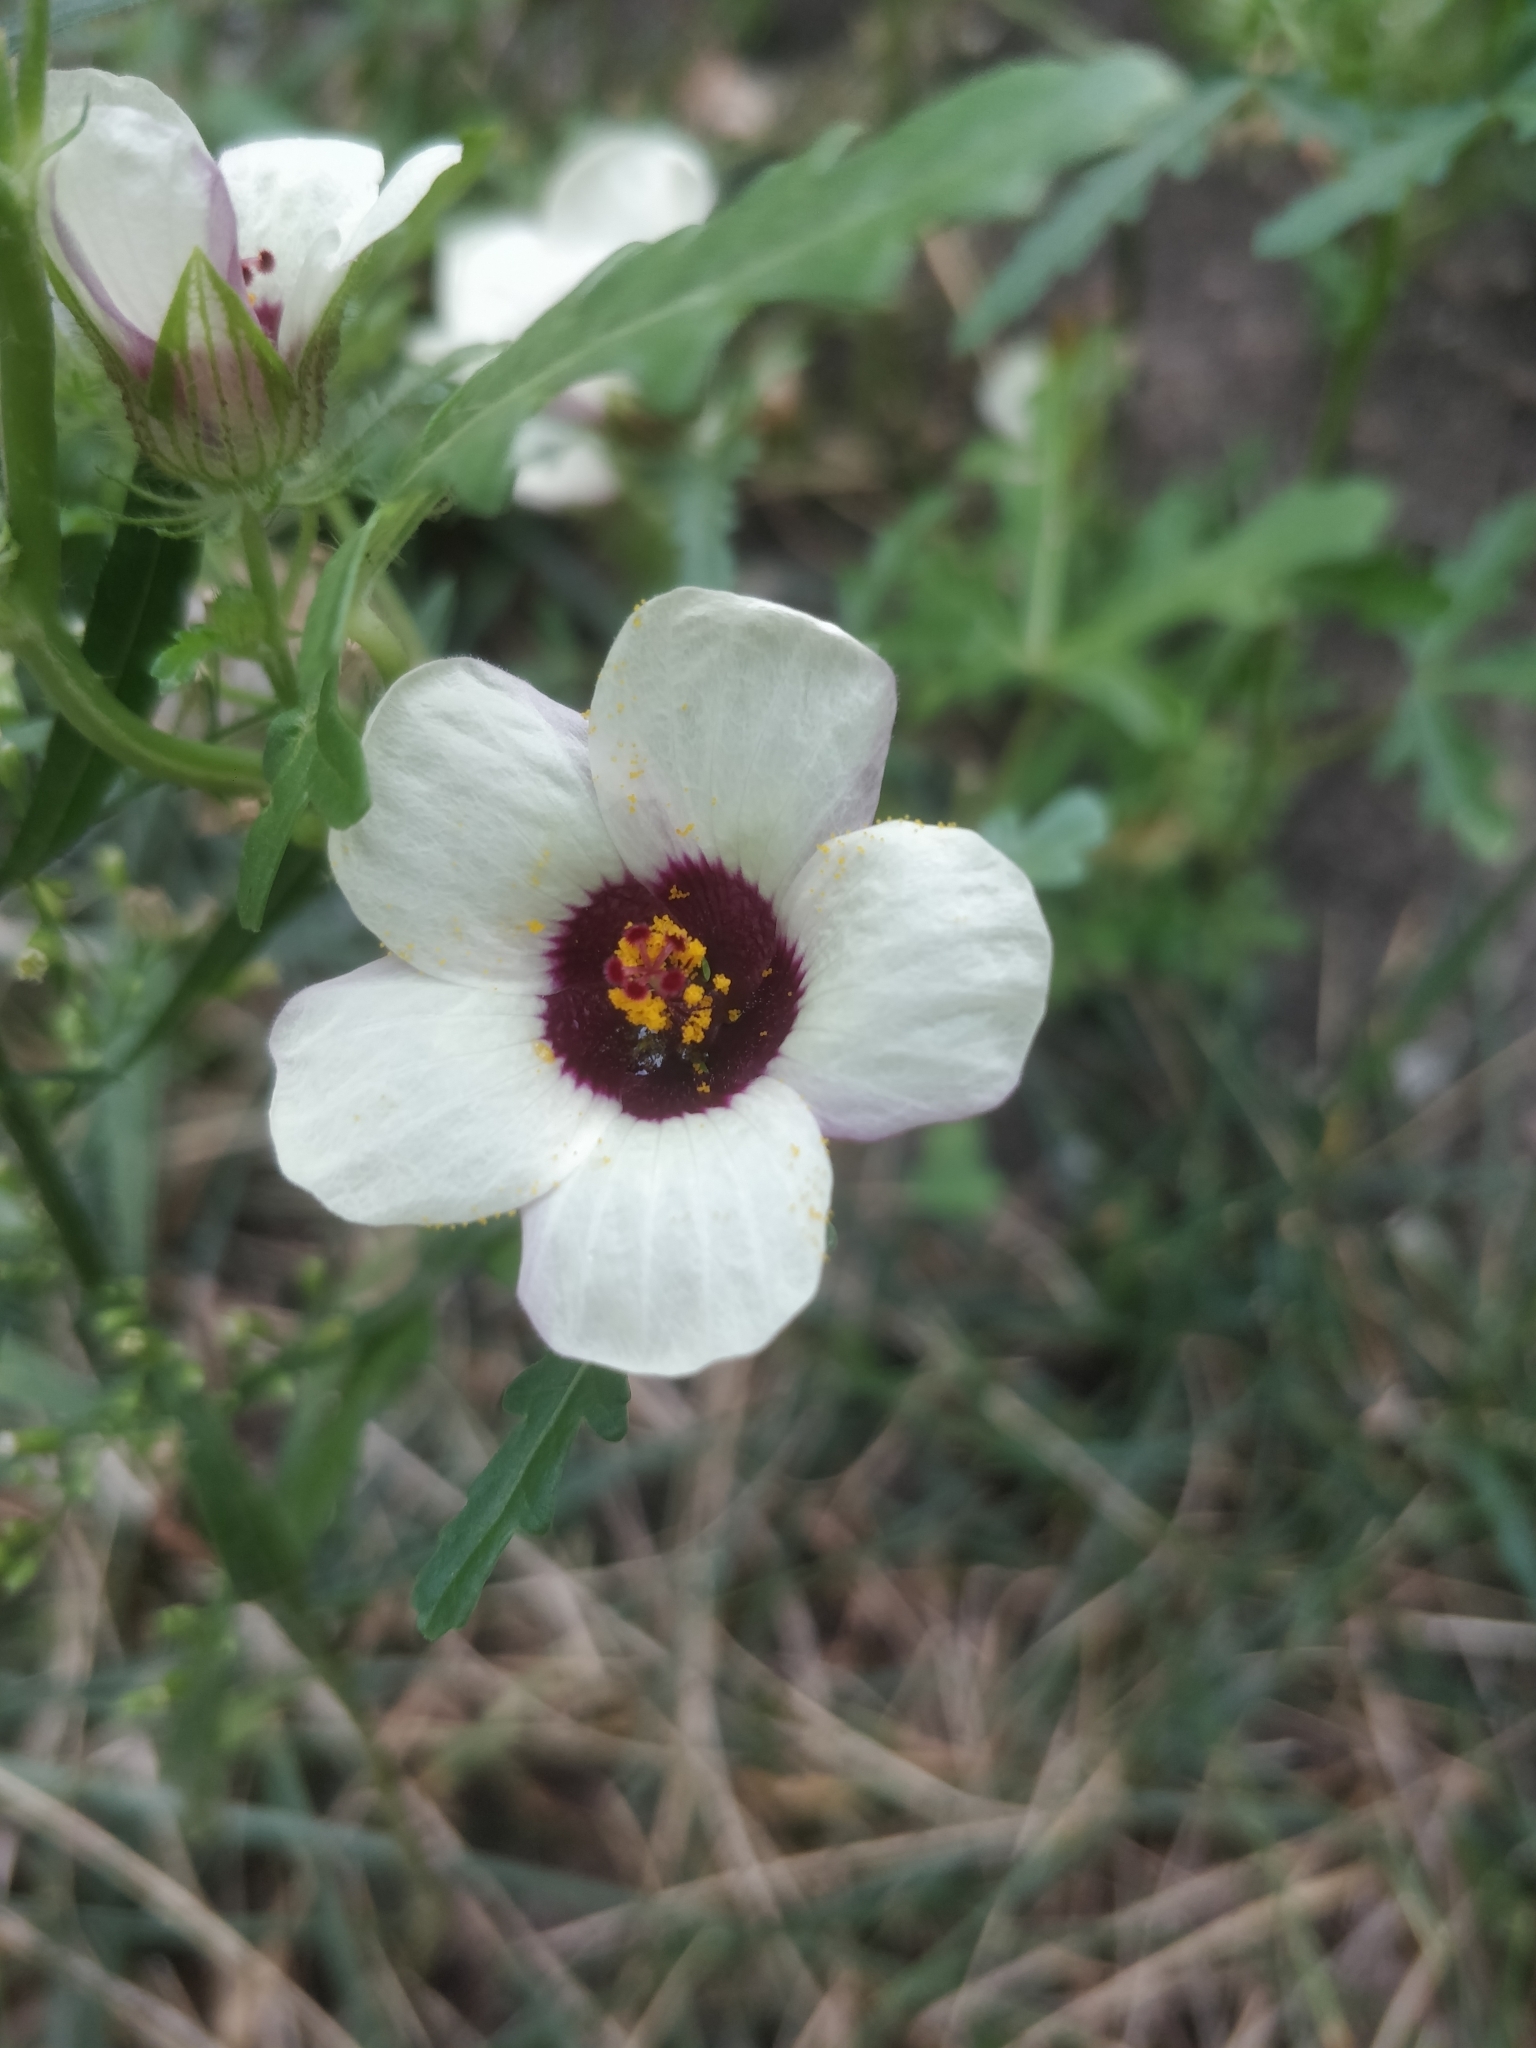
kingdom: Plantae
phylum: Tracheophyta
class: Magnoliopsida
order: Malvales
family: Malvaceae
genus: Hibiscus
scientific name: Hibiscus trionum
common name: Bladder ketmia
